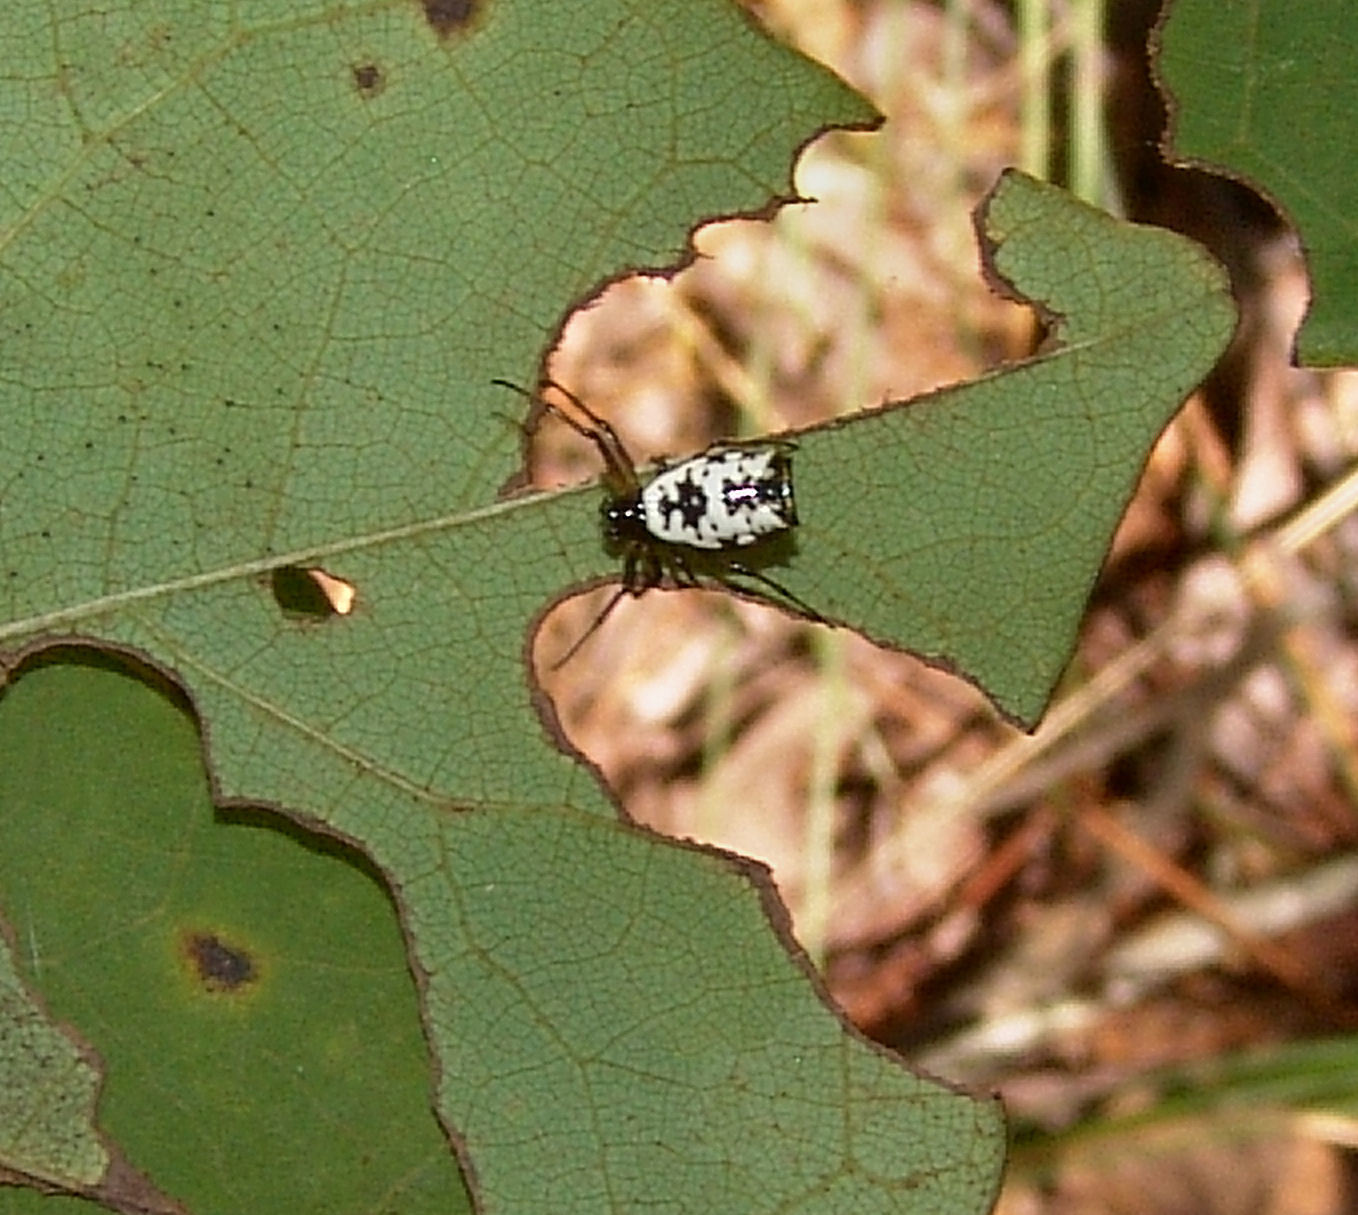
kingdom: Animalia
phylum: Arthropoda
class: Arachnida
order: Araneae
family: Araneidae
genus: Micrathena
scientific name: Micrathena mitrata
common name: Orb weavers
